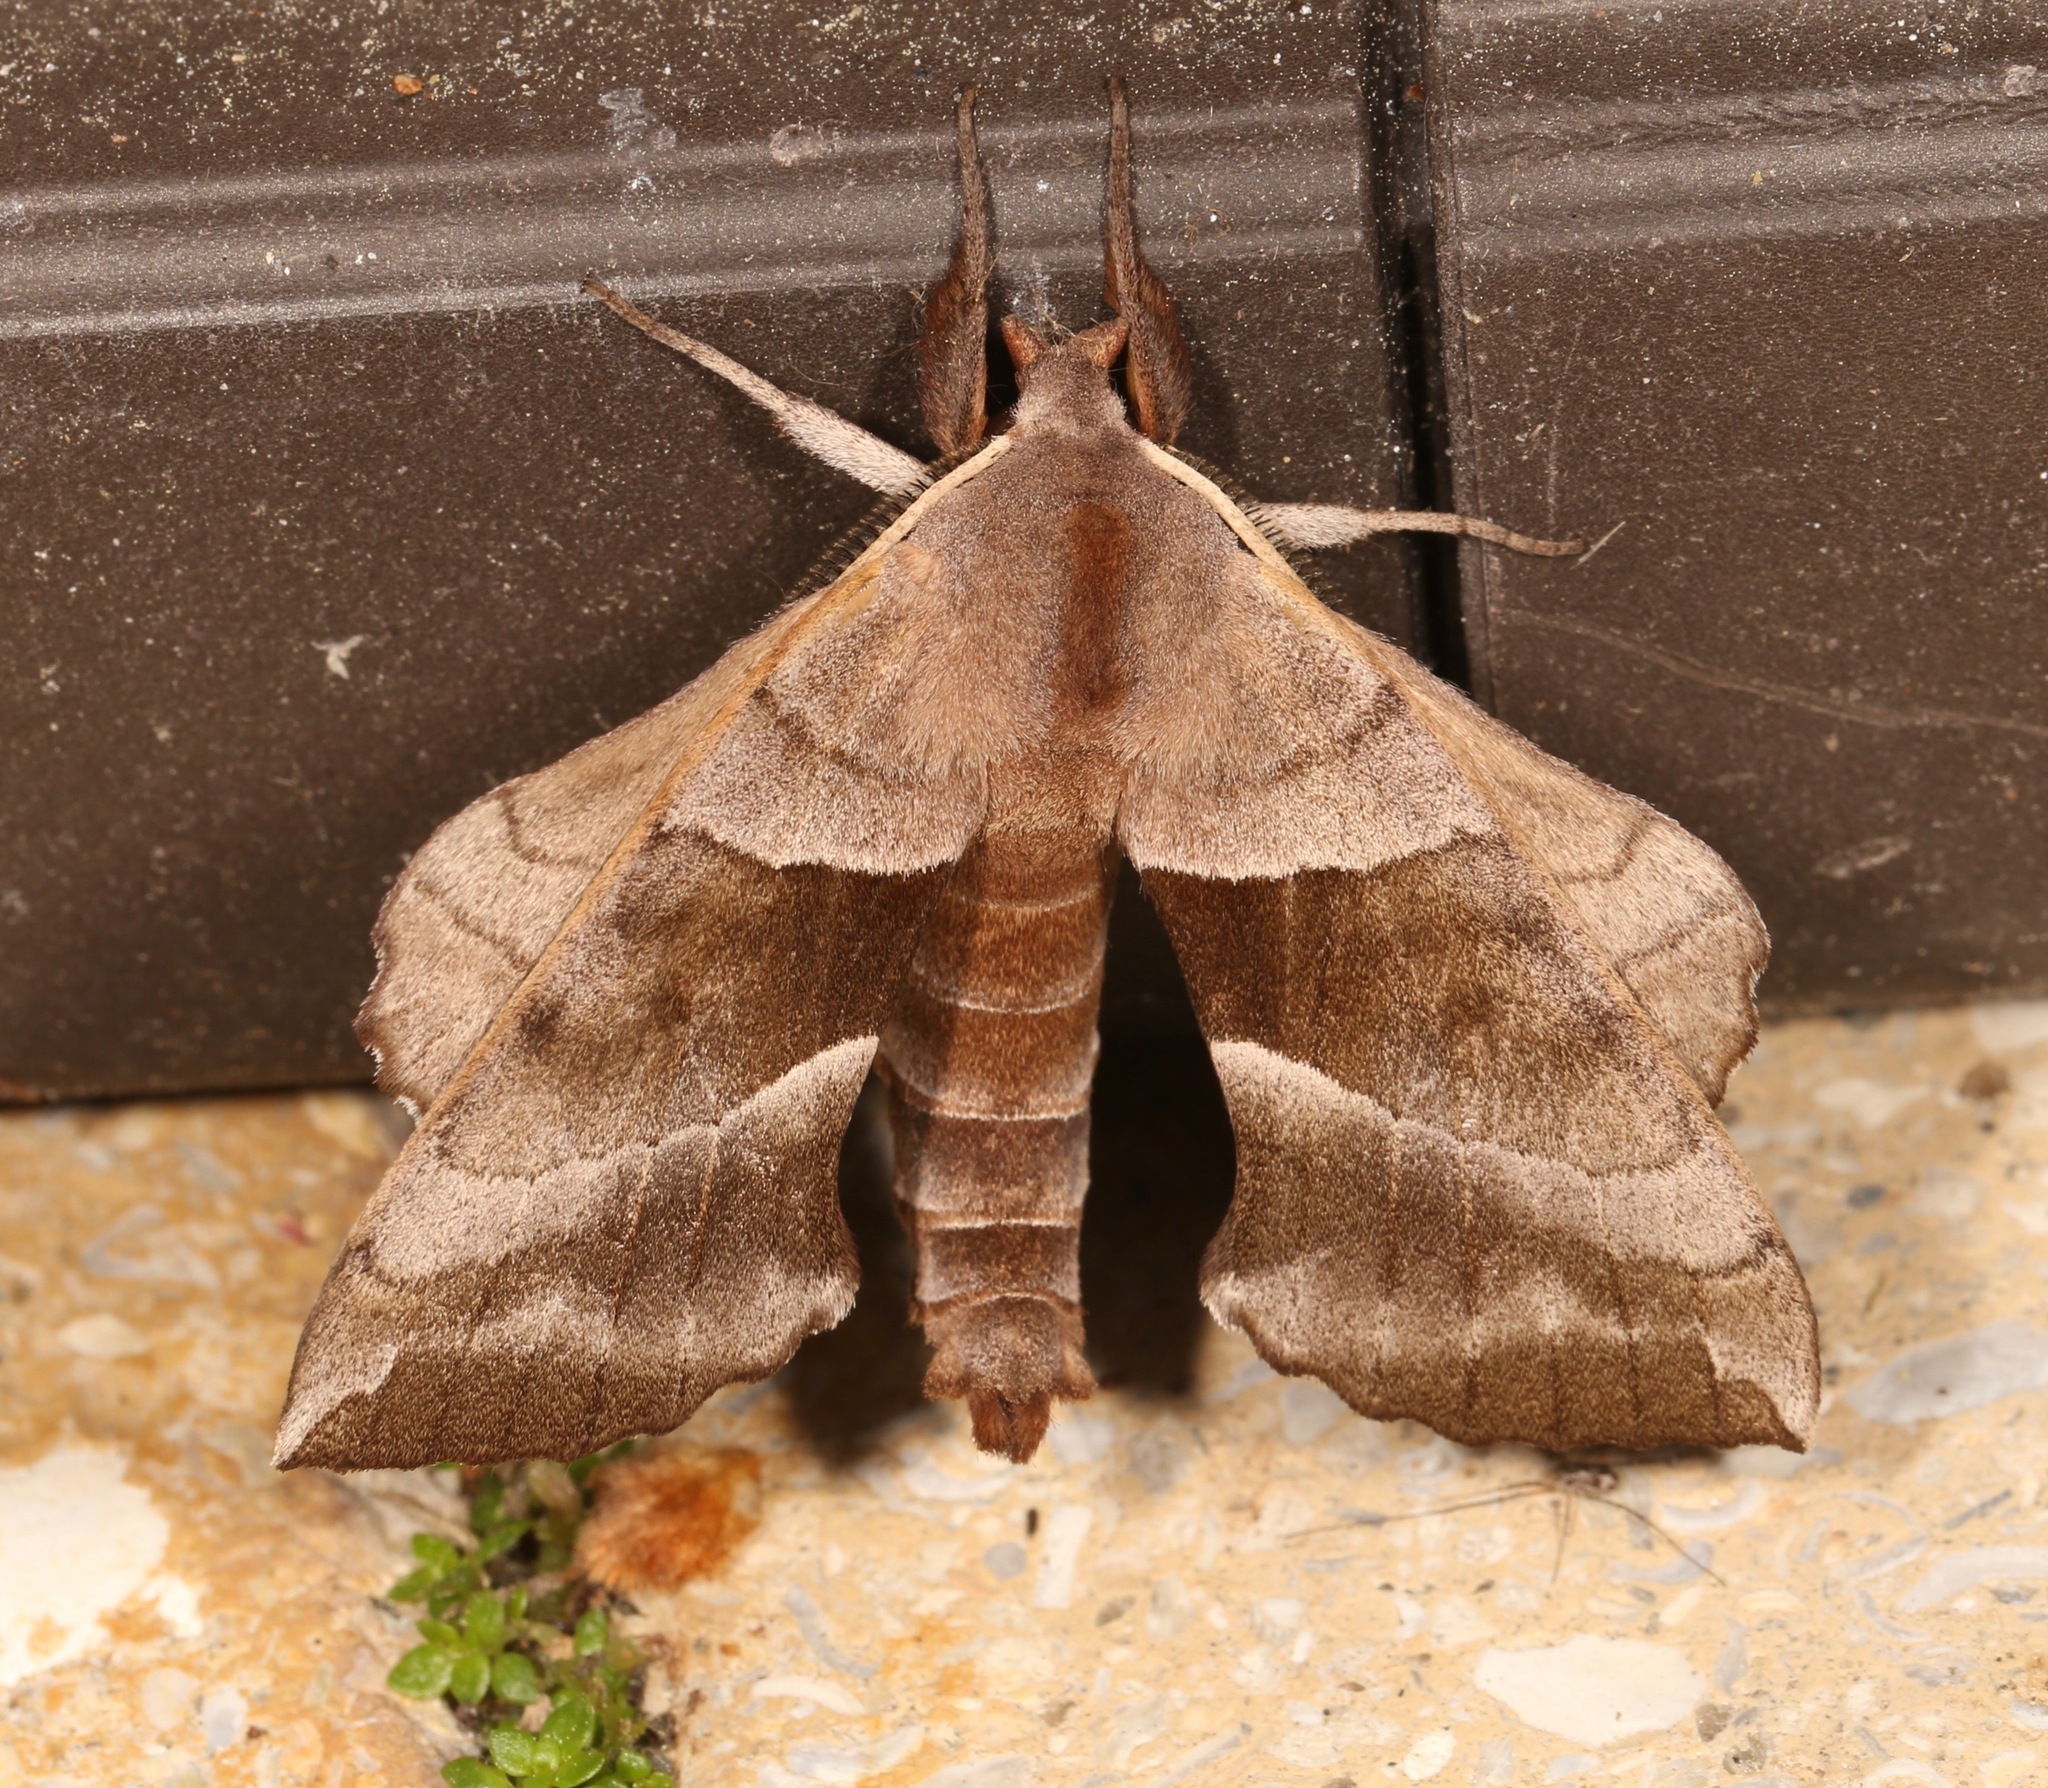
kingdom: Animalia
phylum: Arthropoda
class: Insecta
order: Lepidoptera
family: Sphingidae
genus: Amorpha
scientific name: Amorpha juglandis
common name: Walnut sphinx
